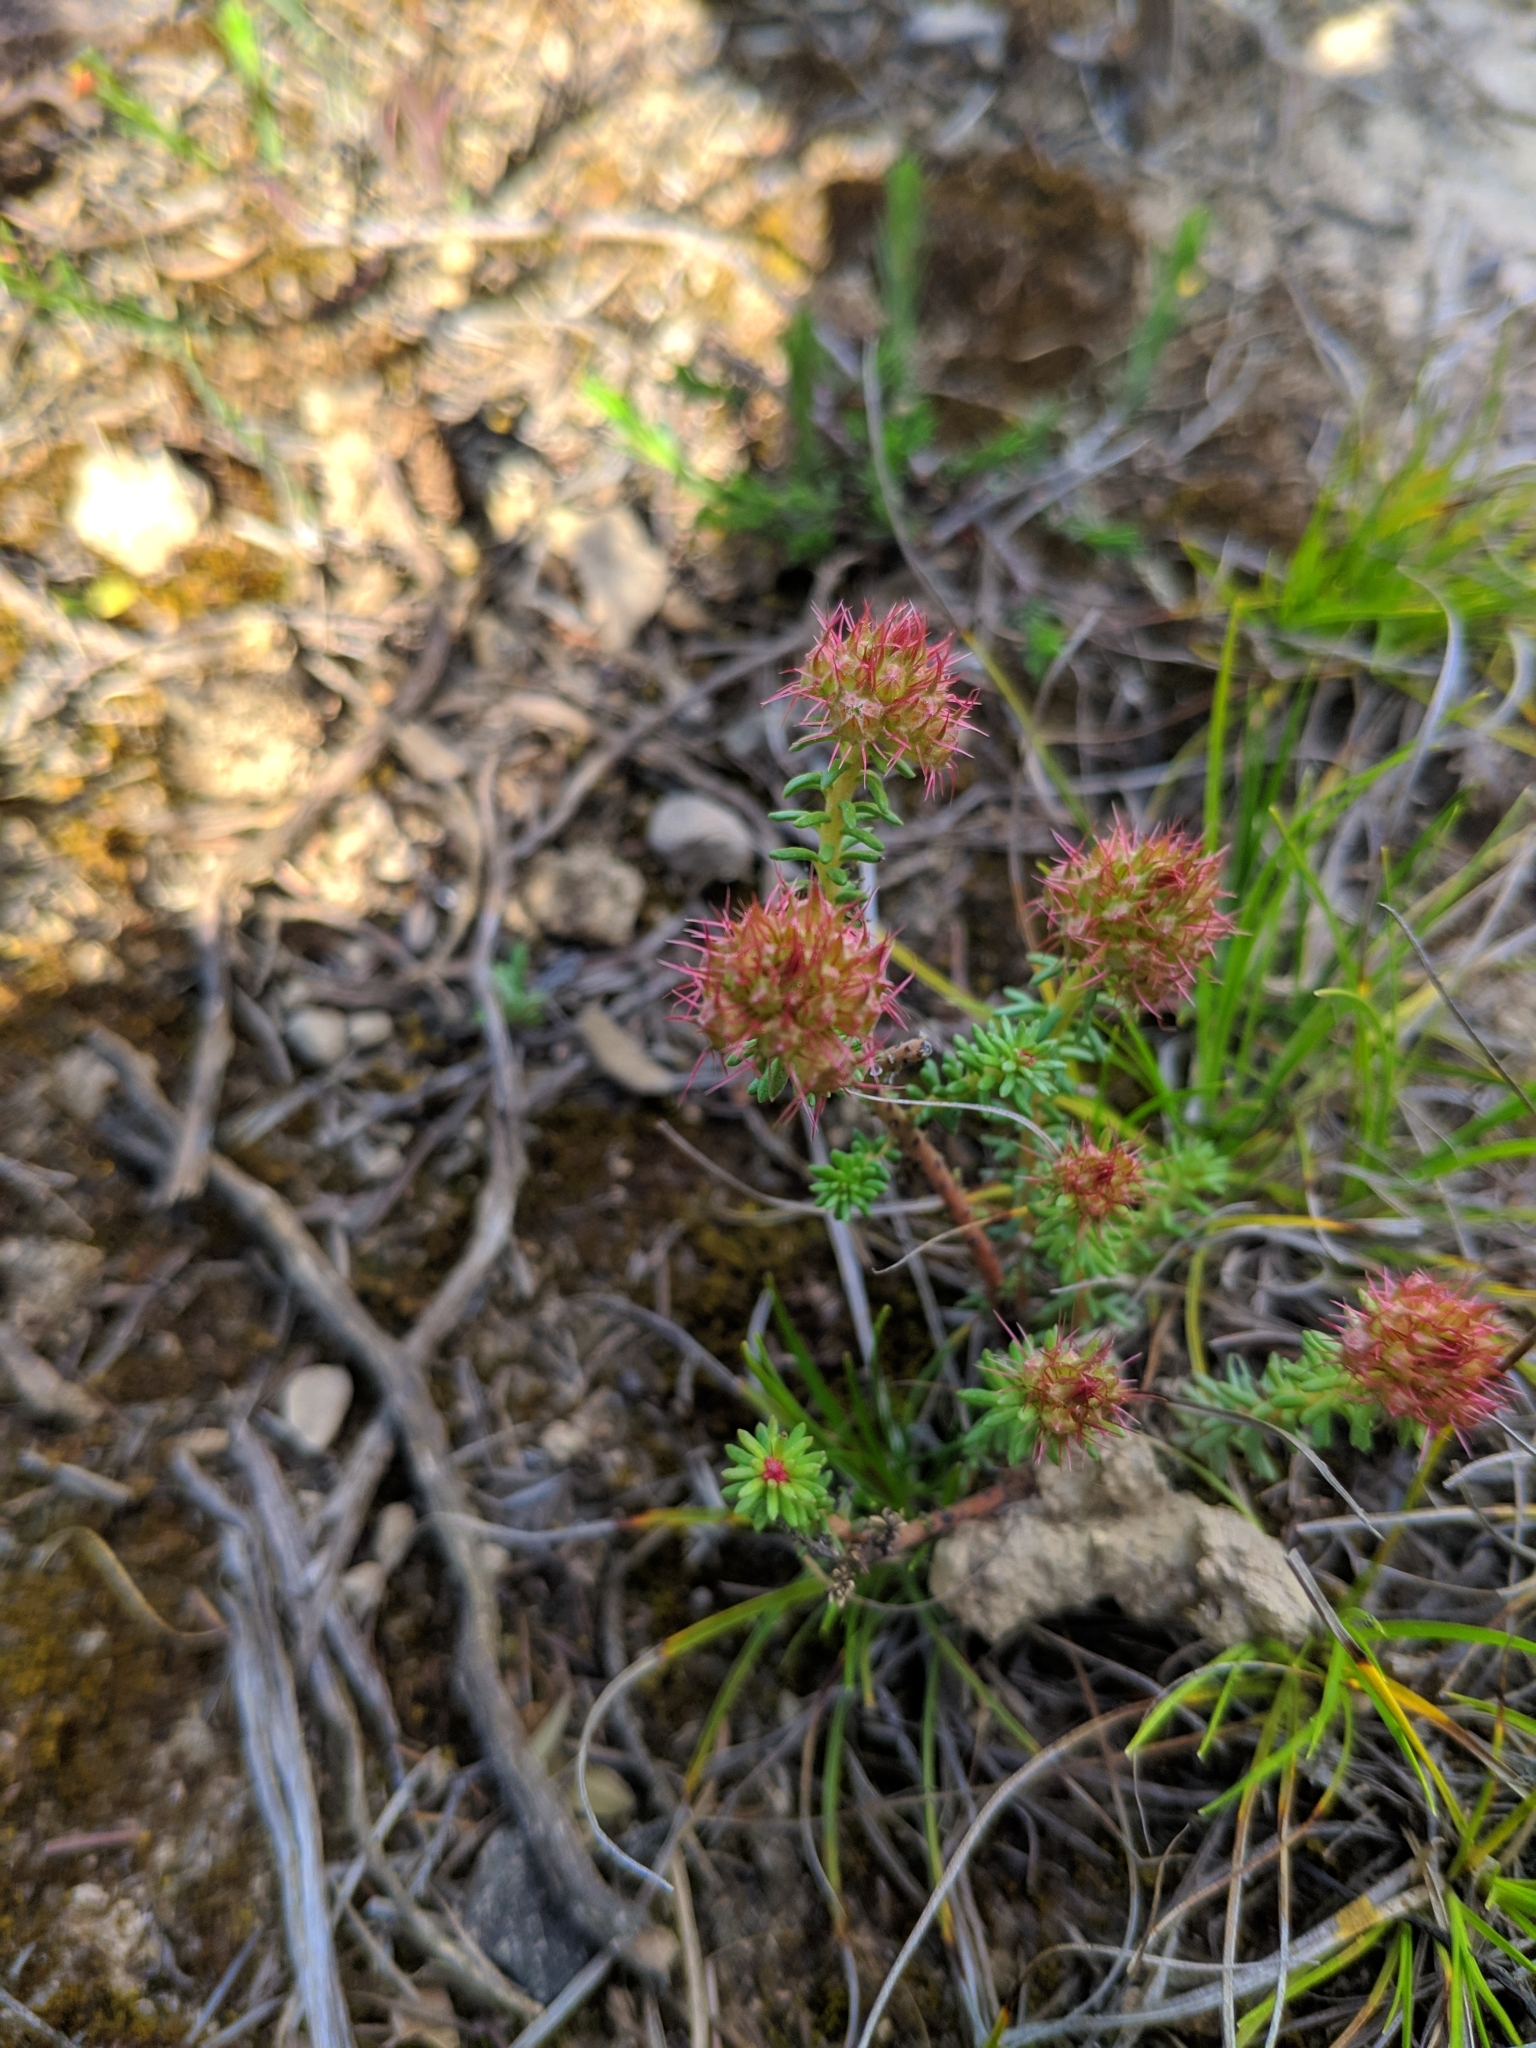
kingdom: Plantae
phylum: Tracheophyta
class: Magnoliopsida
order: Ericales
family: Primulaceae
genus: Coris
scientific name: Coris monspeliensis
